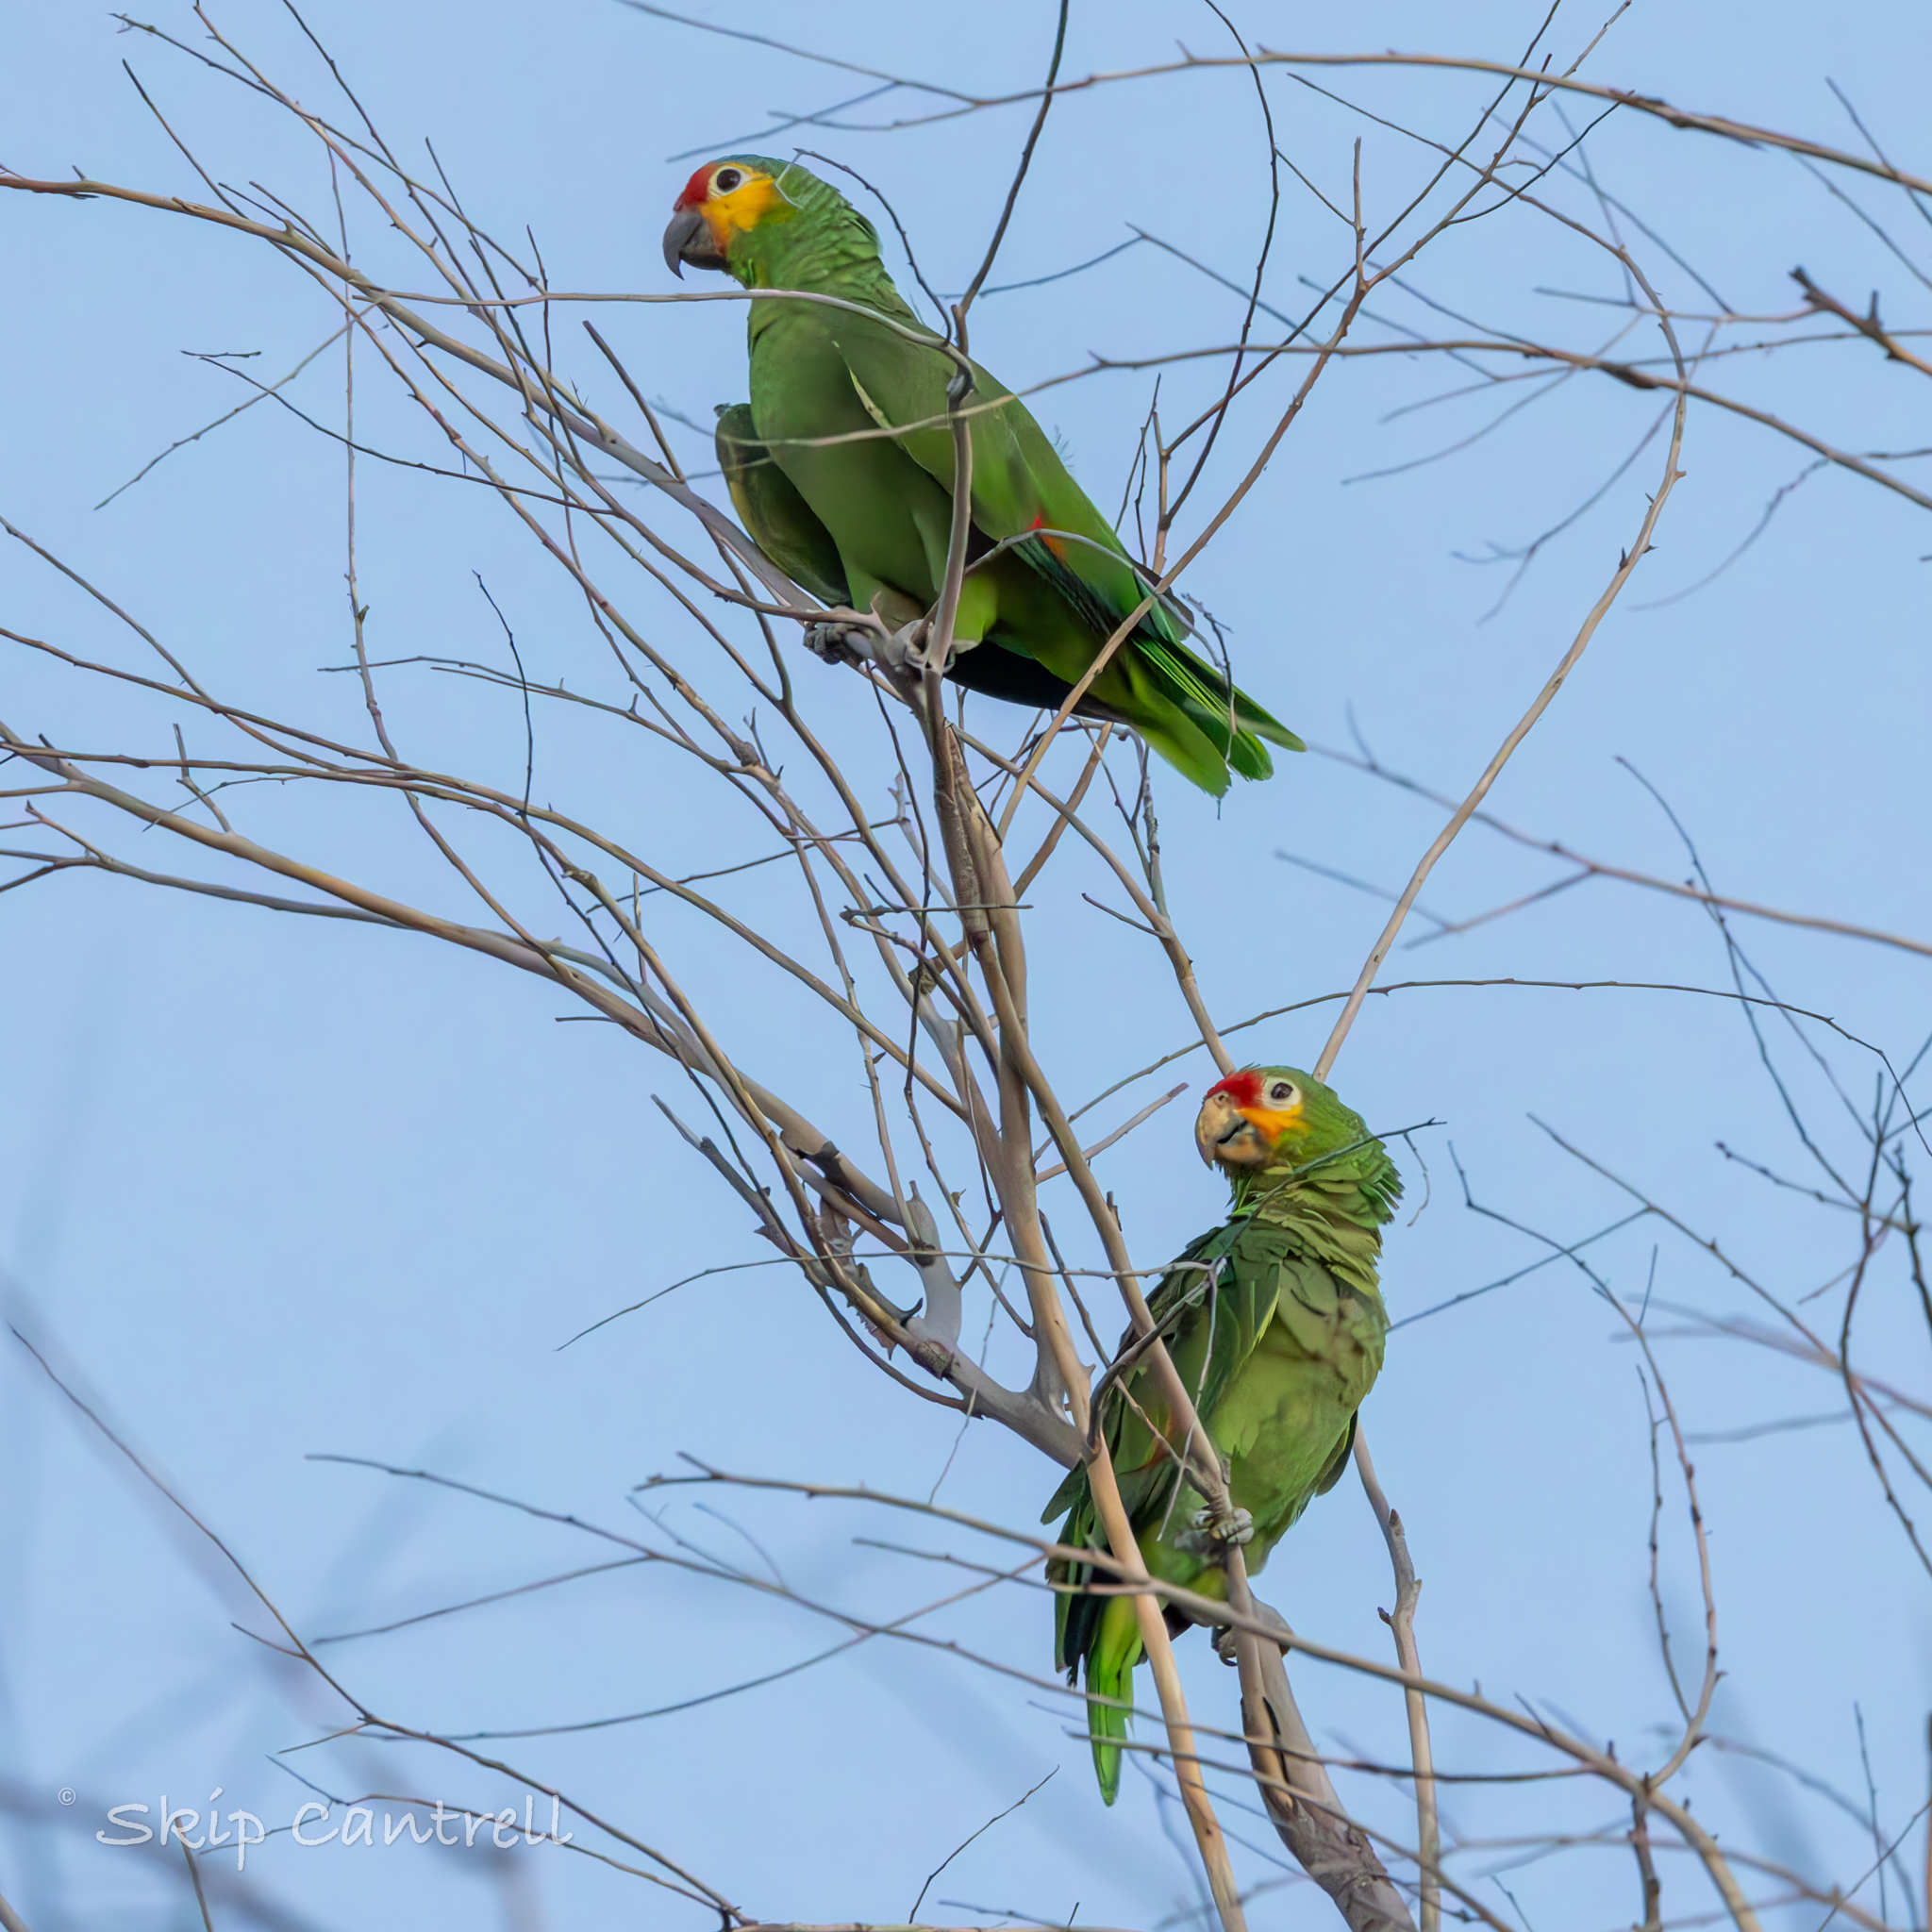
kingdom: Animalia
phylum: Chordata
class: Aves
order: Psittaciformes
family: Psittacidae
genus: Amazona
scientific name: Amazona autumnalis
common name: Red-lored amazon
